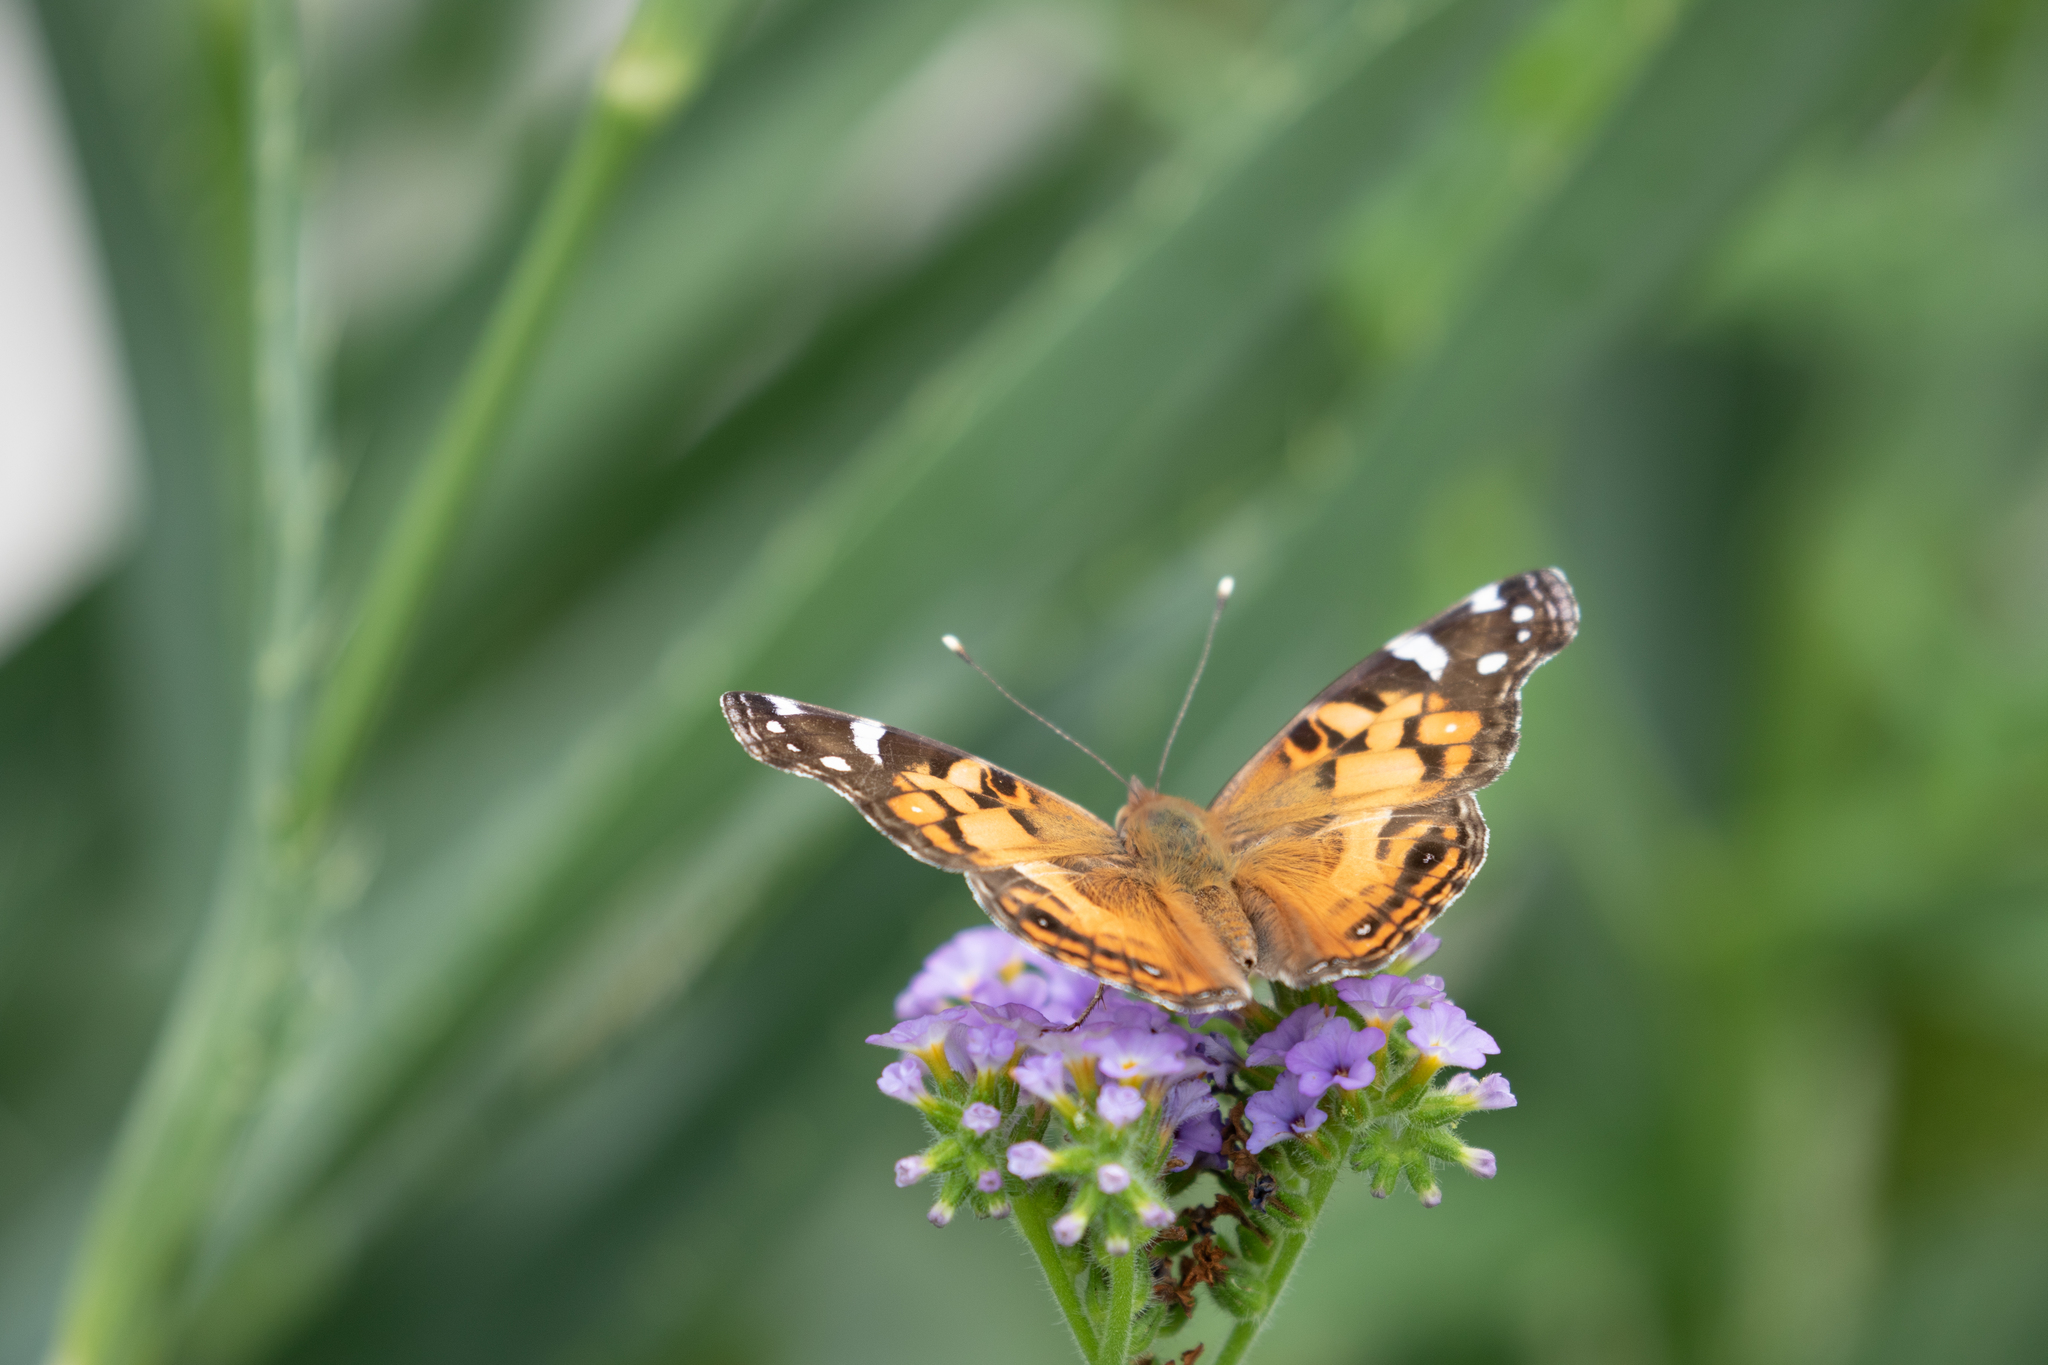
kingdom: Animalia
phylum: Arthropoda
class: Insecta
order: Lepidoptera
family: Nymphalidae
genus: Vanessa
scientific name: Vanessa virginiensis
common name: American lady
